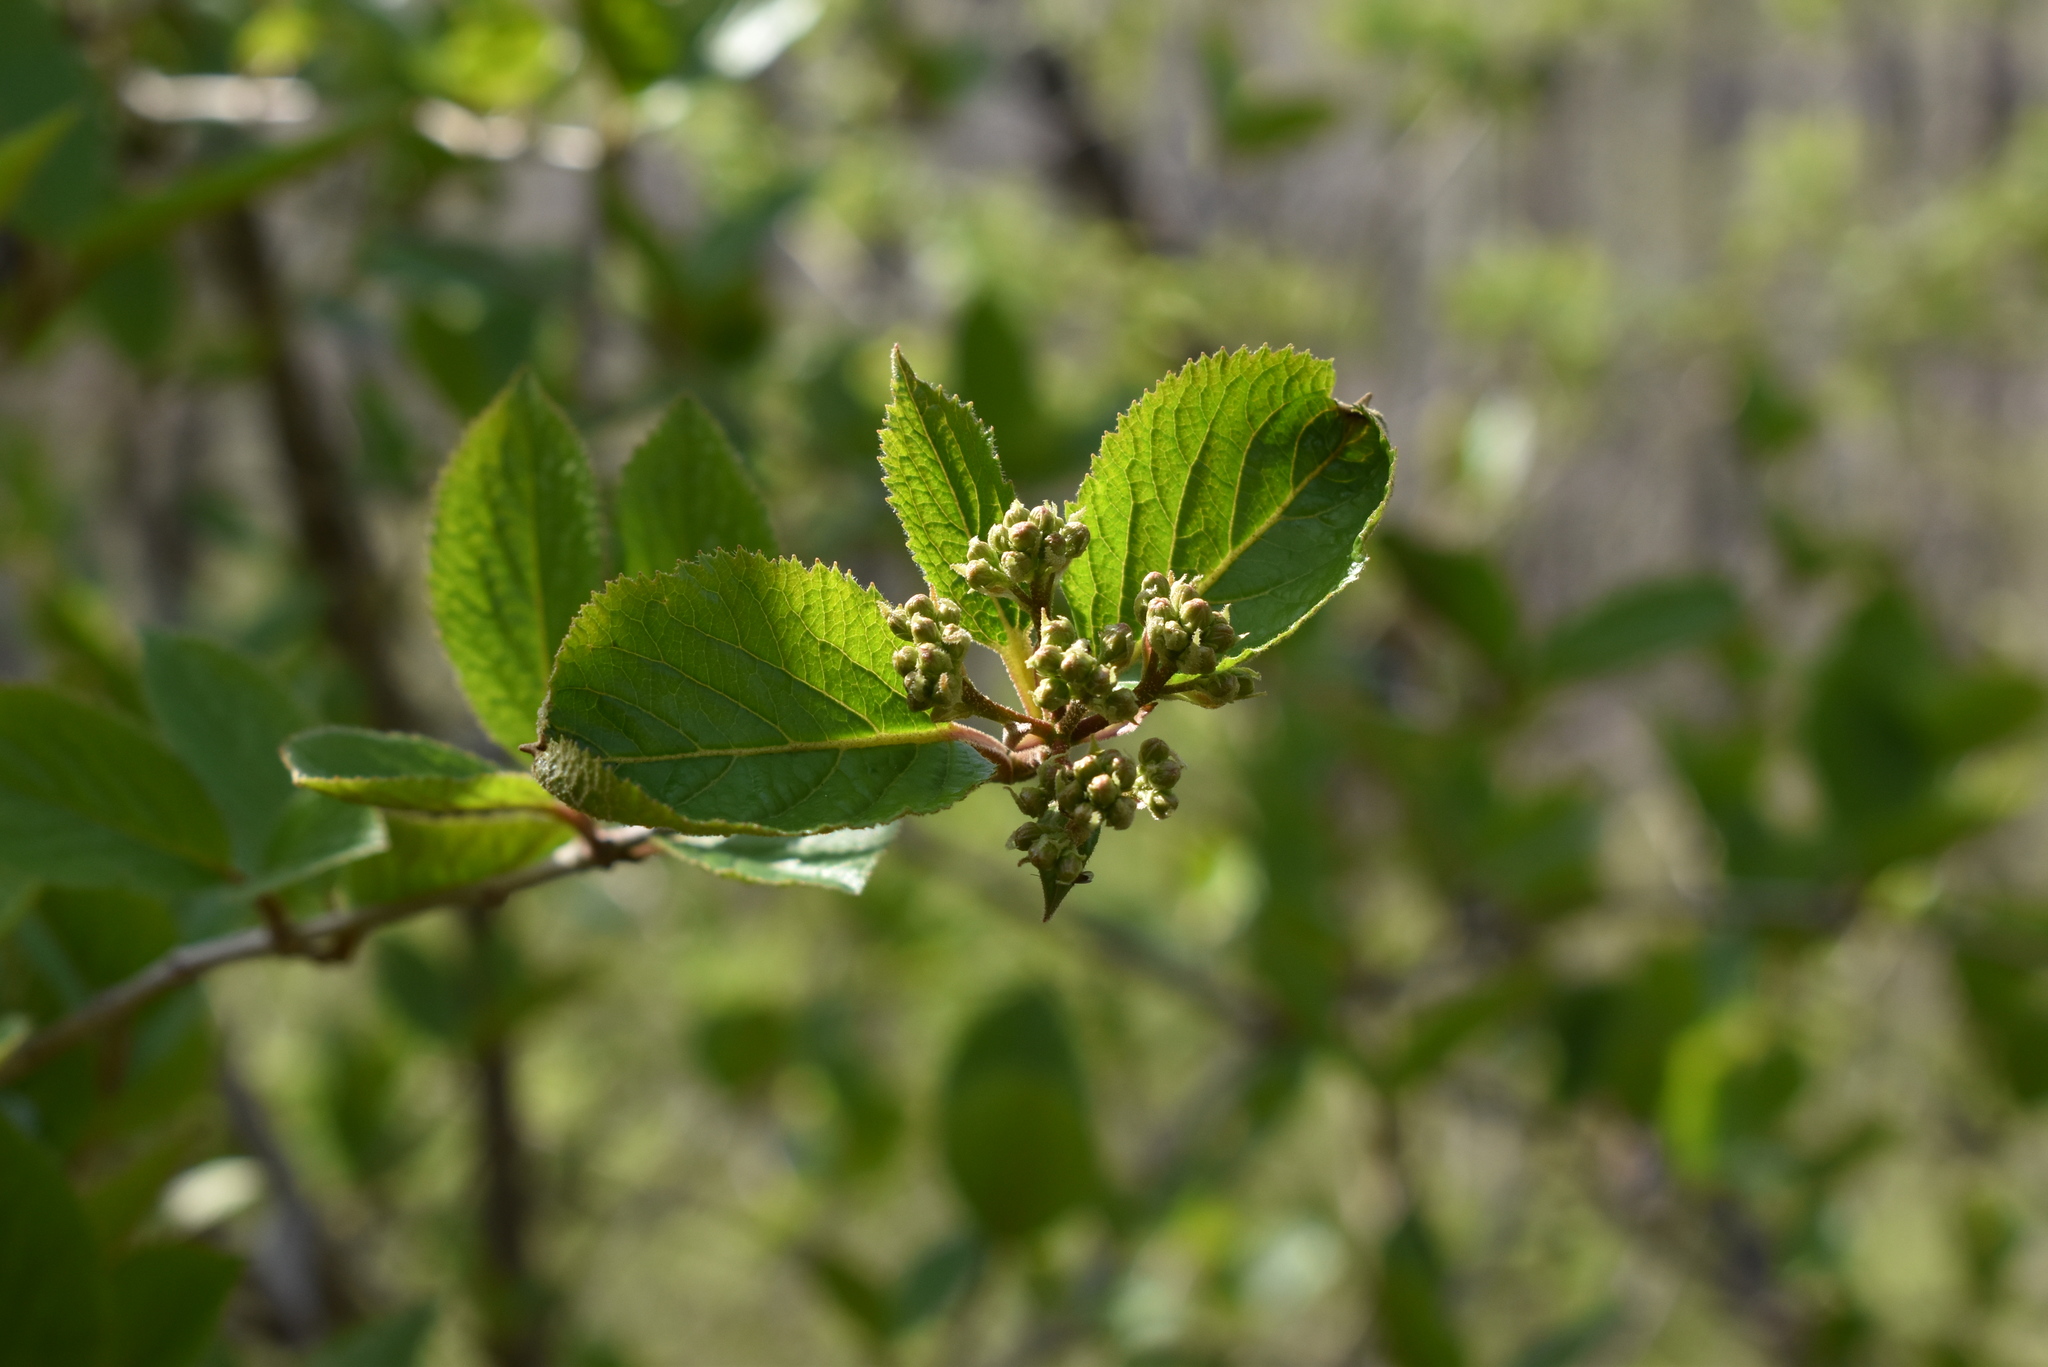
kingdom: Plantae
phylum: Tracheophyta
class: Magnoliopsida
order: Dipsacales
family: Viburnaceae
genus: Viburnum
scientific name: Viburnum burejaeticum
